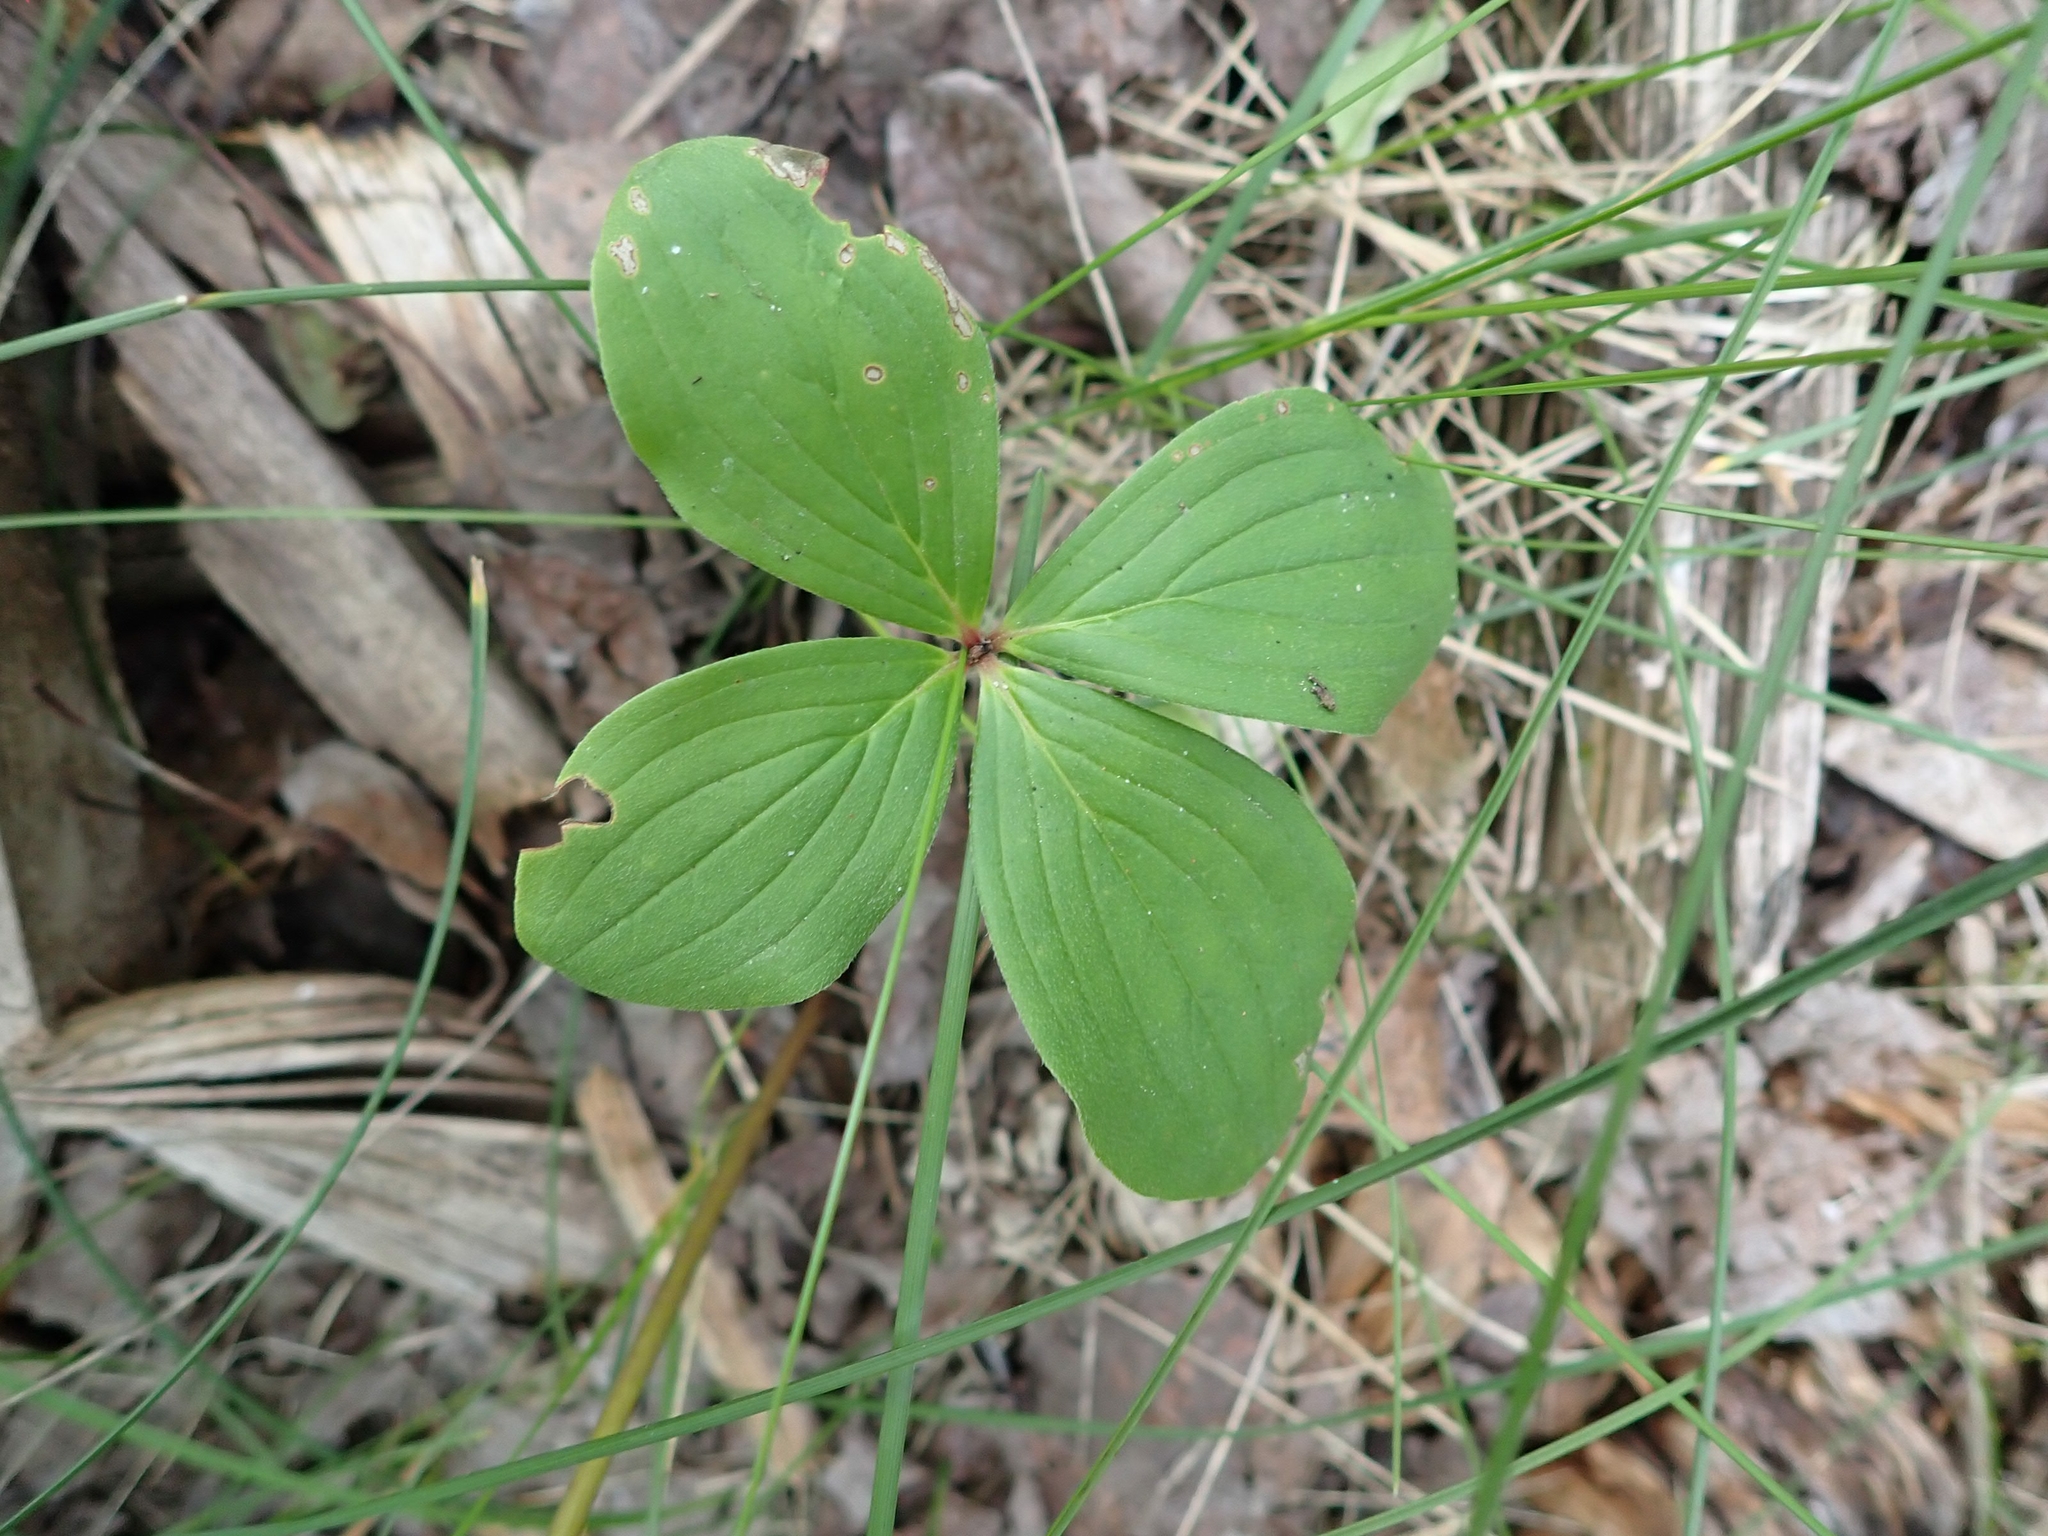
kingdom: Plantae
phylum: Tracheophyta
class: Magnoliopsida
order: Cornales
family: Cornaceae
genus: Cornus
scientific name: Cornus canadensis
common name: Creeping dogwood
